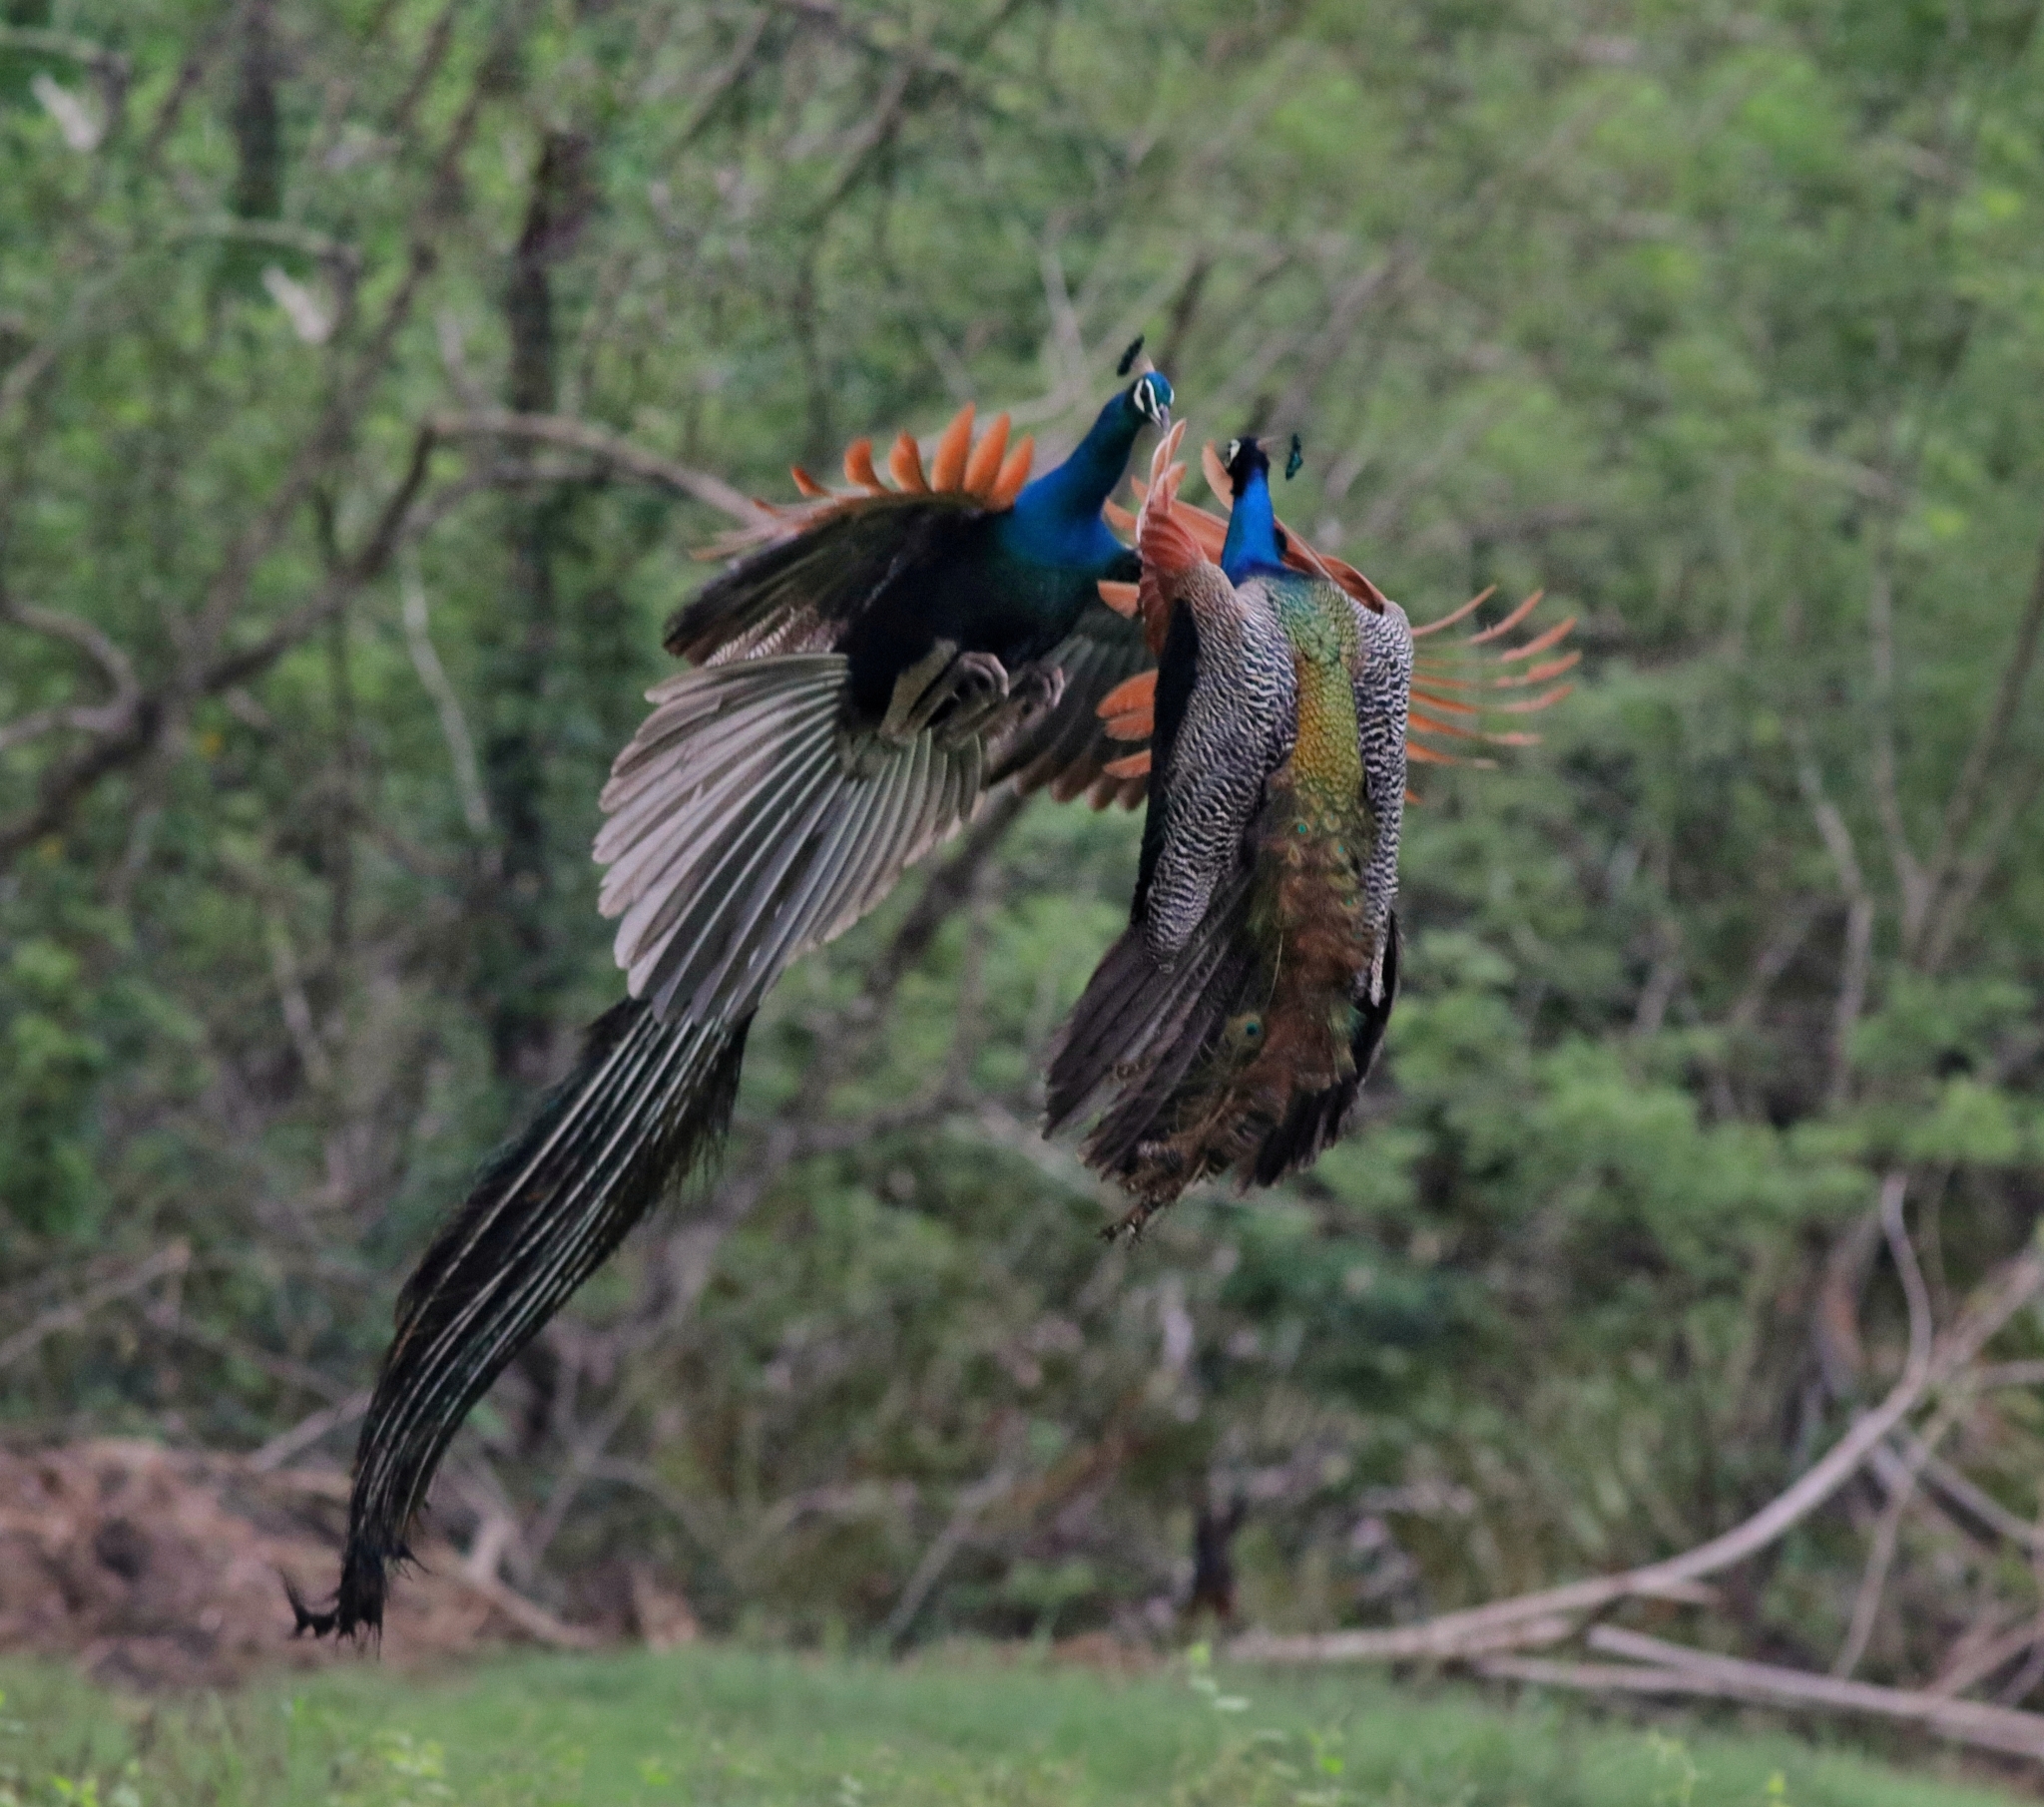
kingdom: Animalia
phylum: Chordata
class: Aves
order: Galliformes
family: Phasianidae
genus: Pavo
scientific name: Pavo cristatus
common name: Indian peafowl
